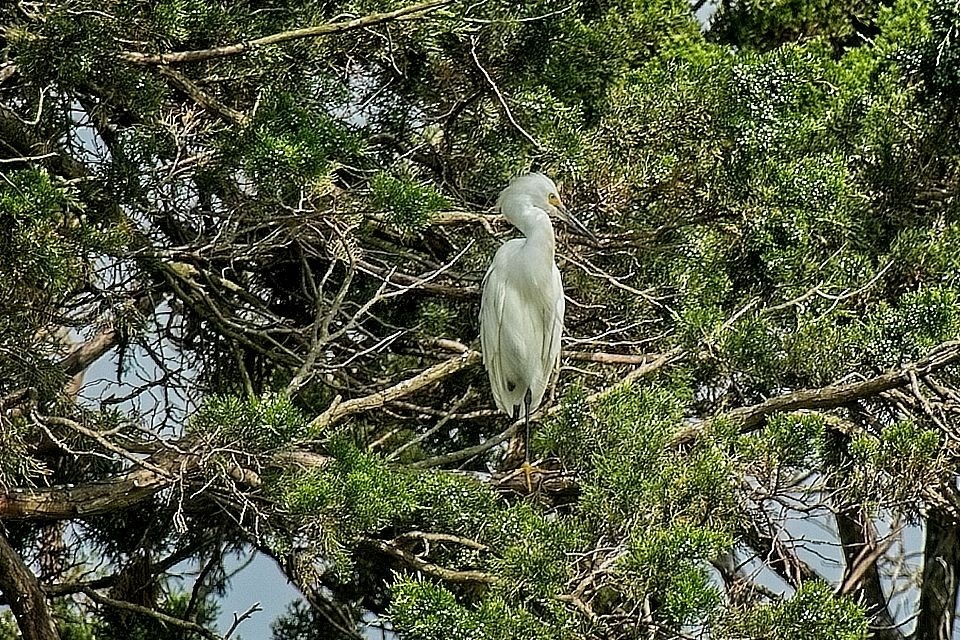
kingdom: Animalia
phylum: Chordata
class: Aves
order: Pelecaniformes
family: Ardeidae
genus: Egretta
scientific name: Egretta thula
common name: Snowy egret
